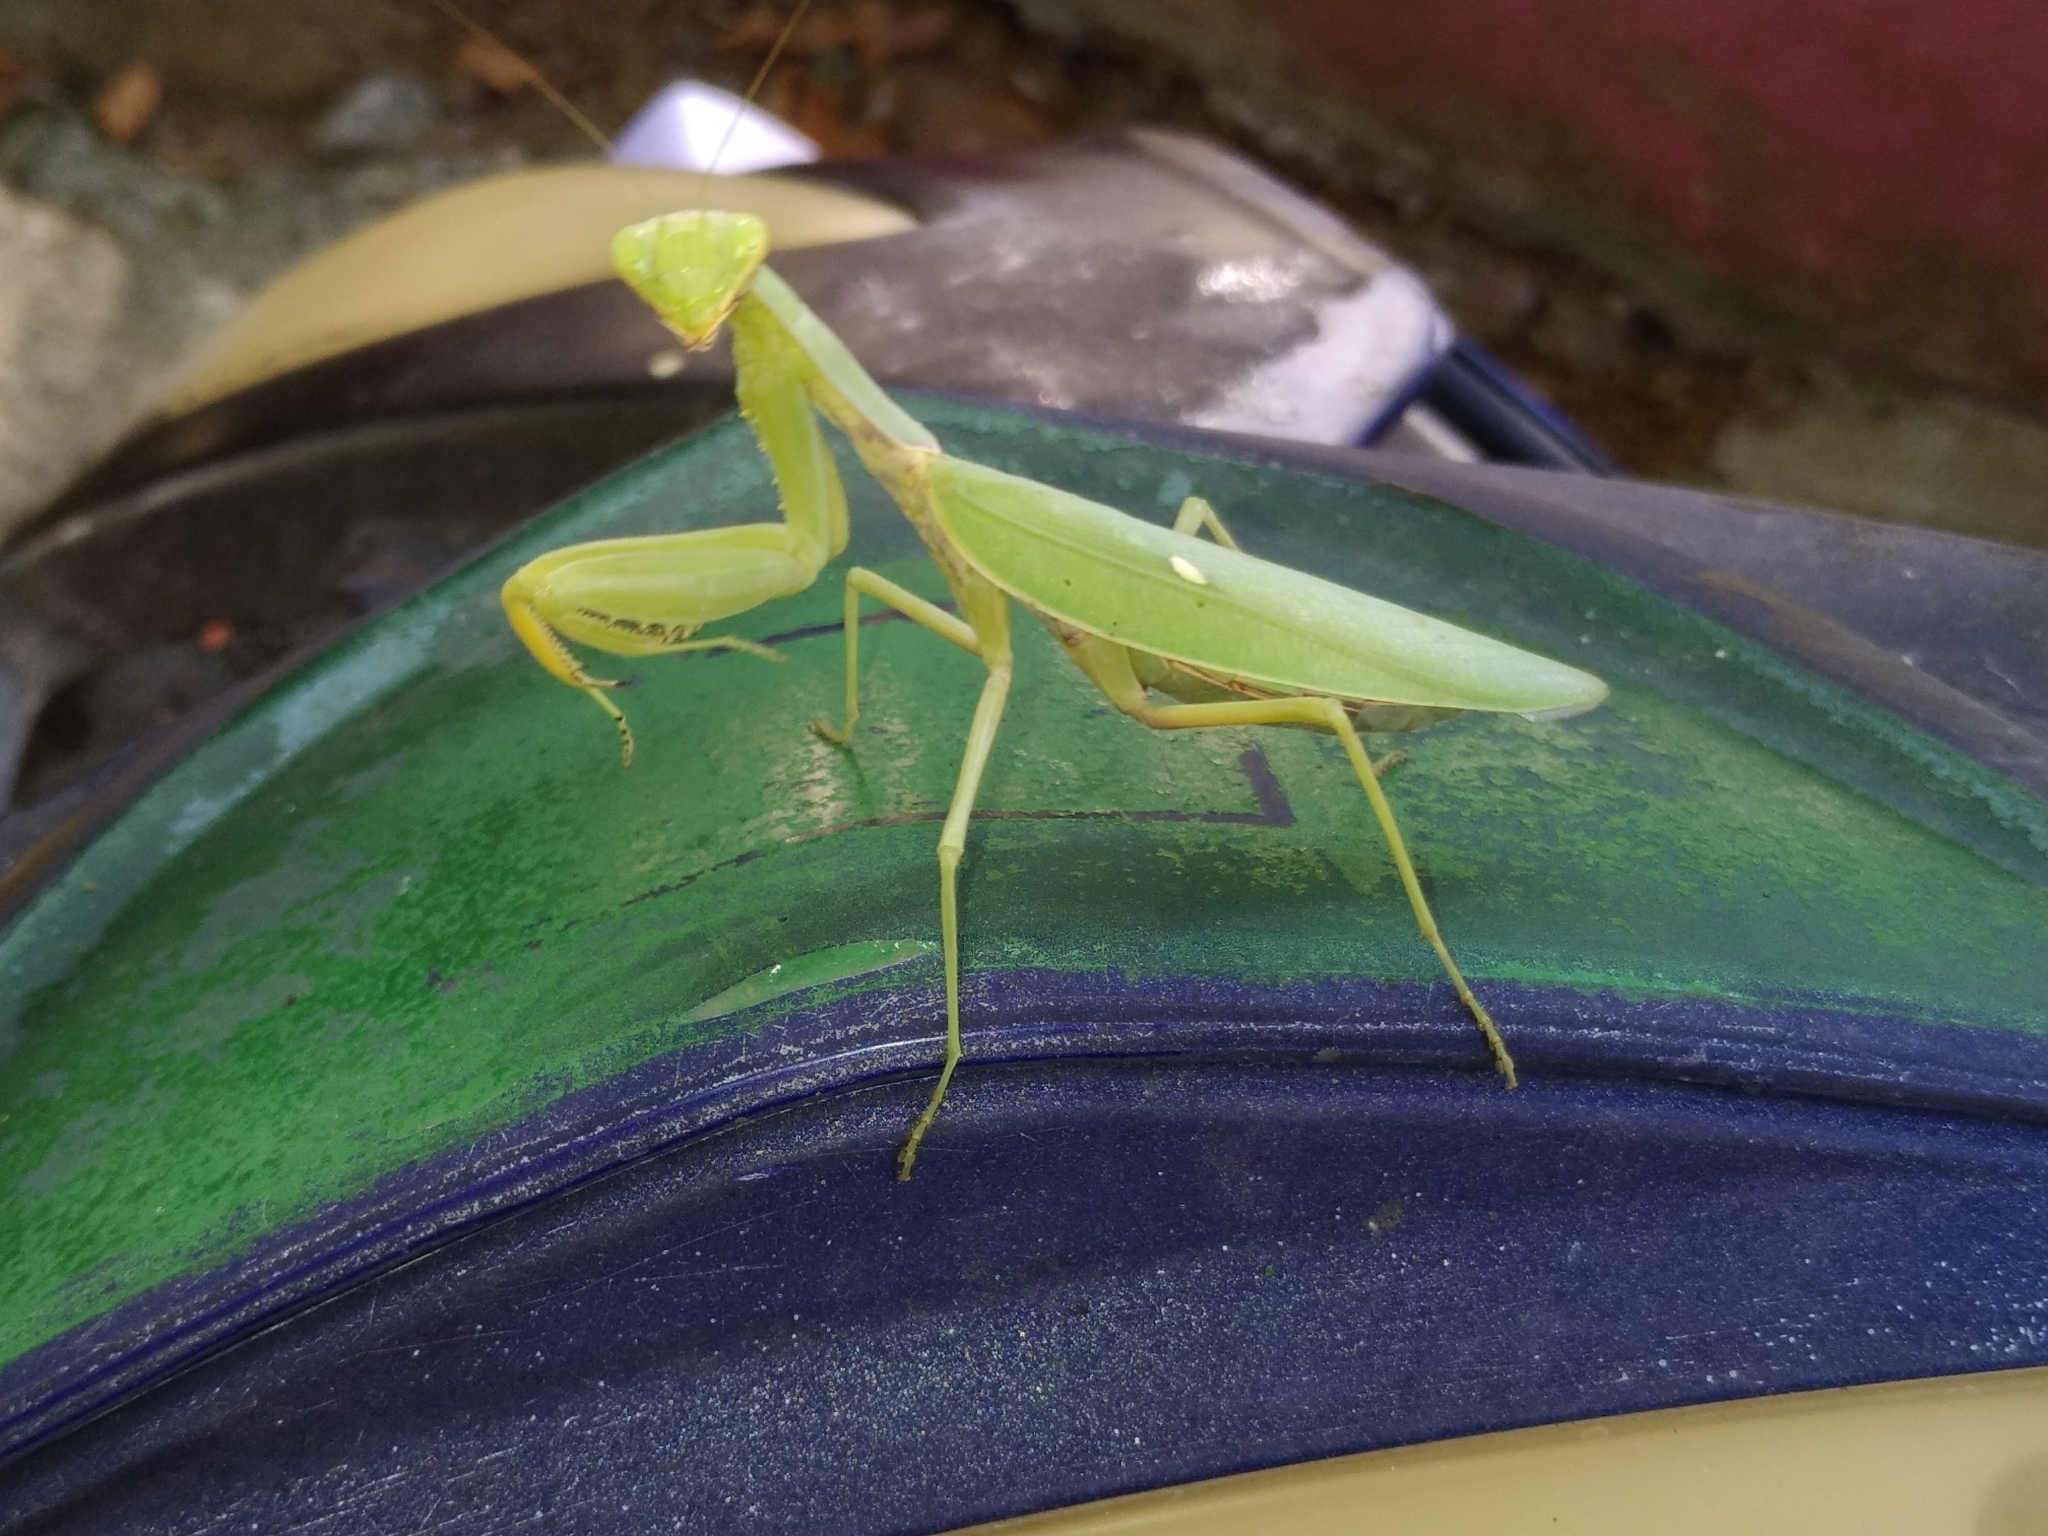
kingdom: Animalia
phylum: Arthropoda
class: Insecta
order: Mantodea
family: Mantidae
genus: Hierodula
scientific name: Hierodula transcaucasica
